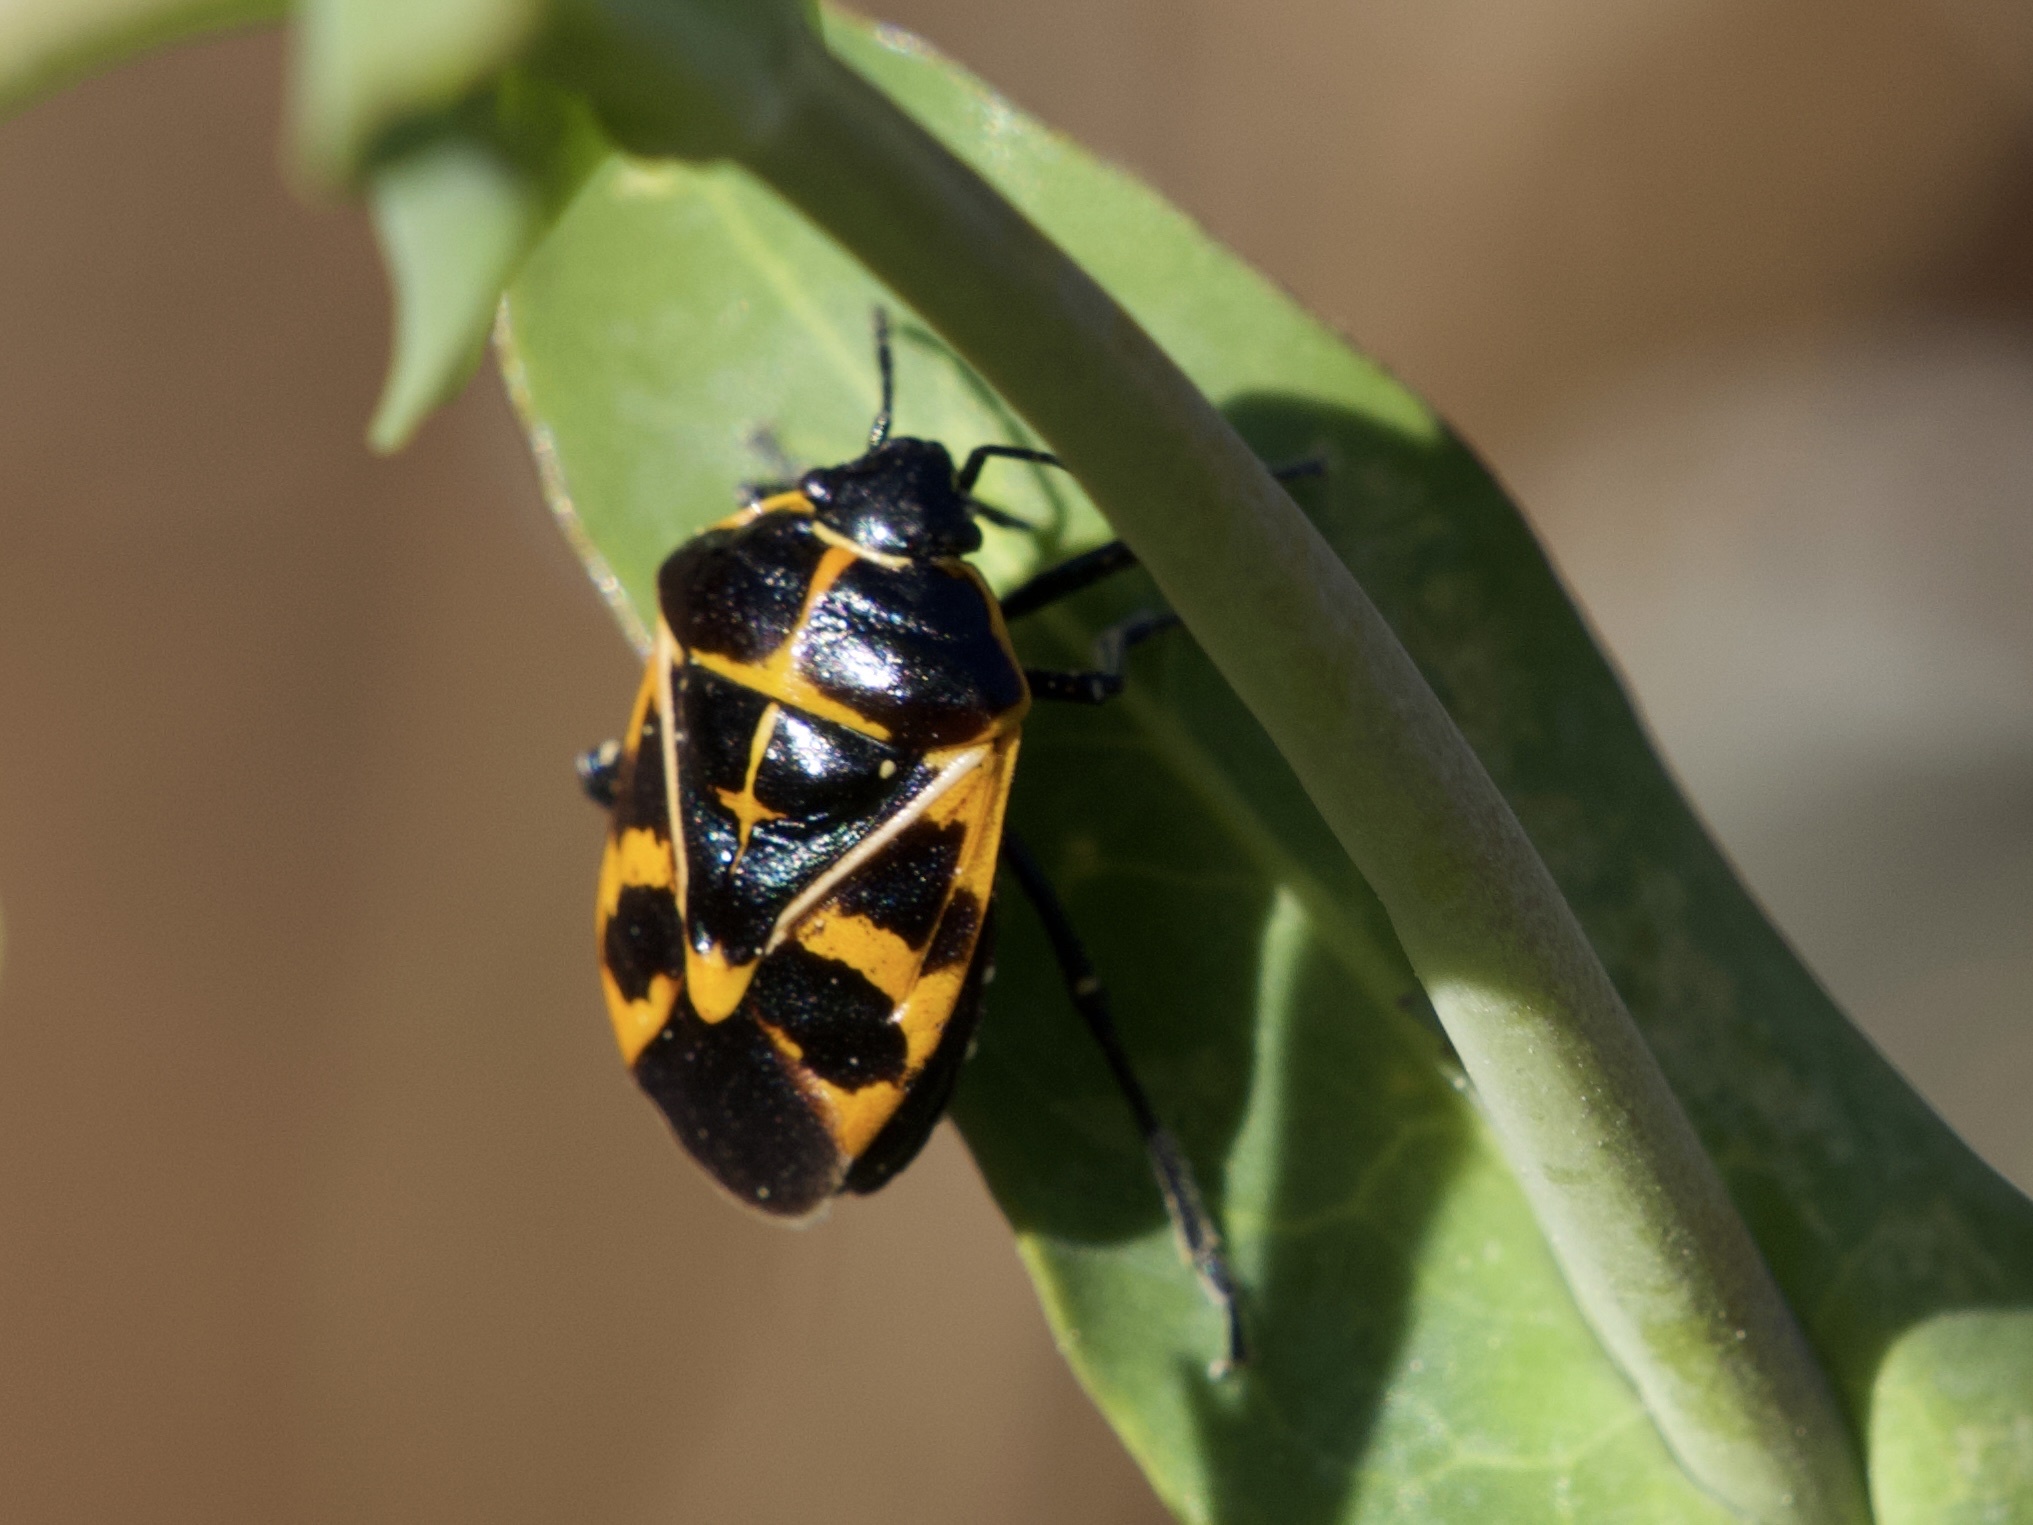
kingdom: Animalia
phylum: Arthropoda
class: Insecta
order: Hemiptera
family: Pentatomidae
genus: Murgantia
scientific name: Murgantia histrionica
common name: Harlequin bug
